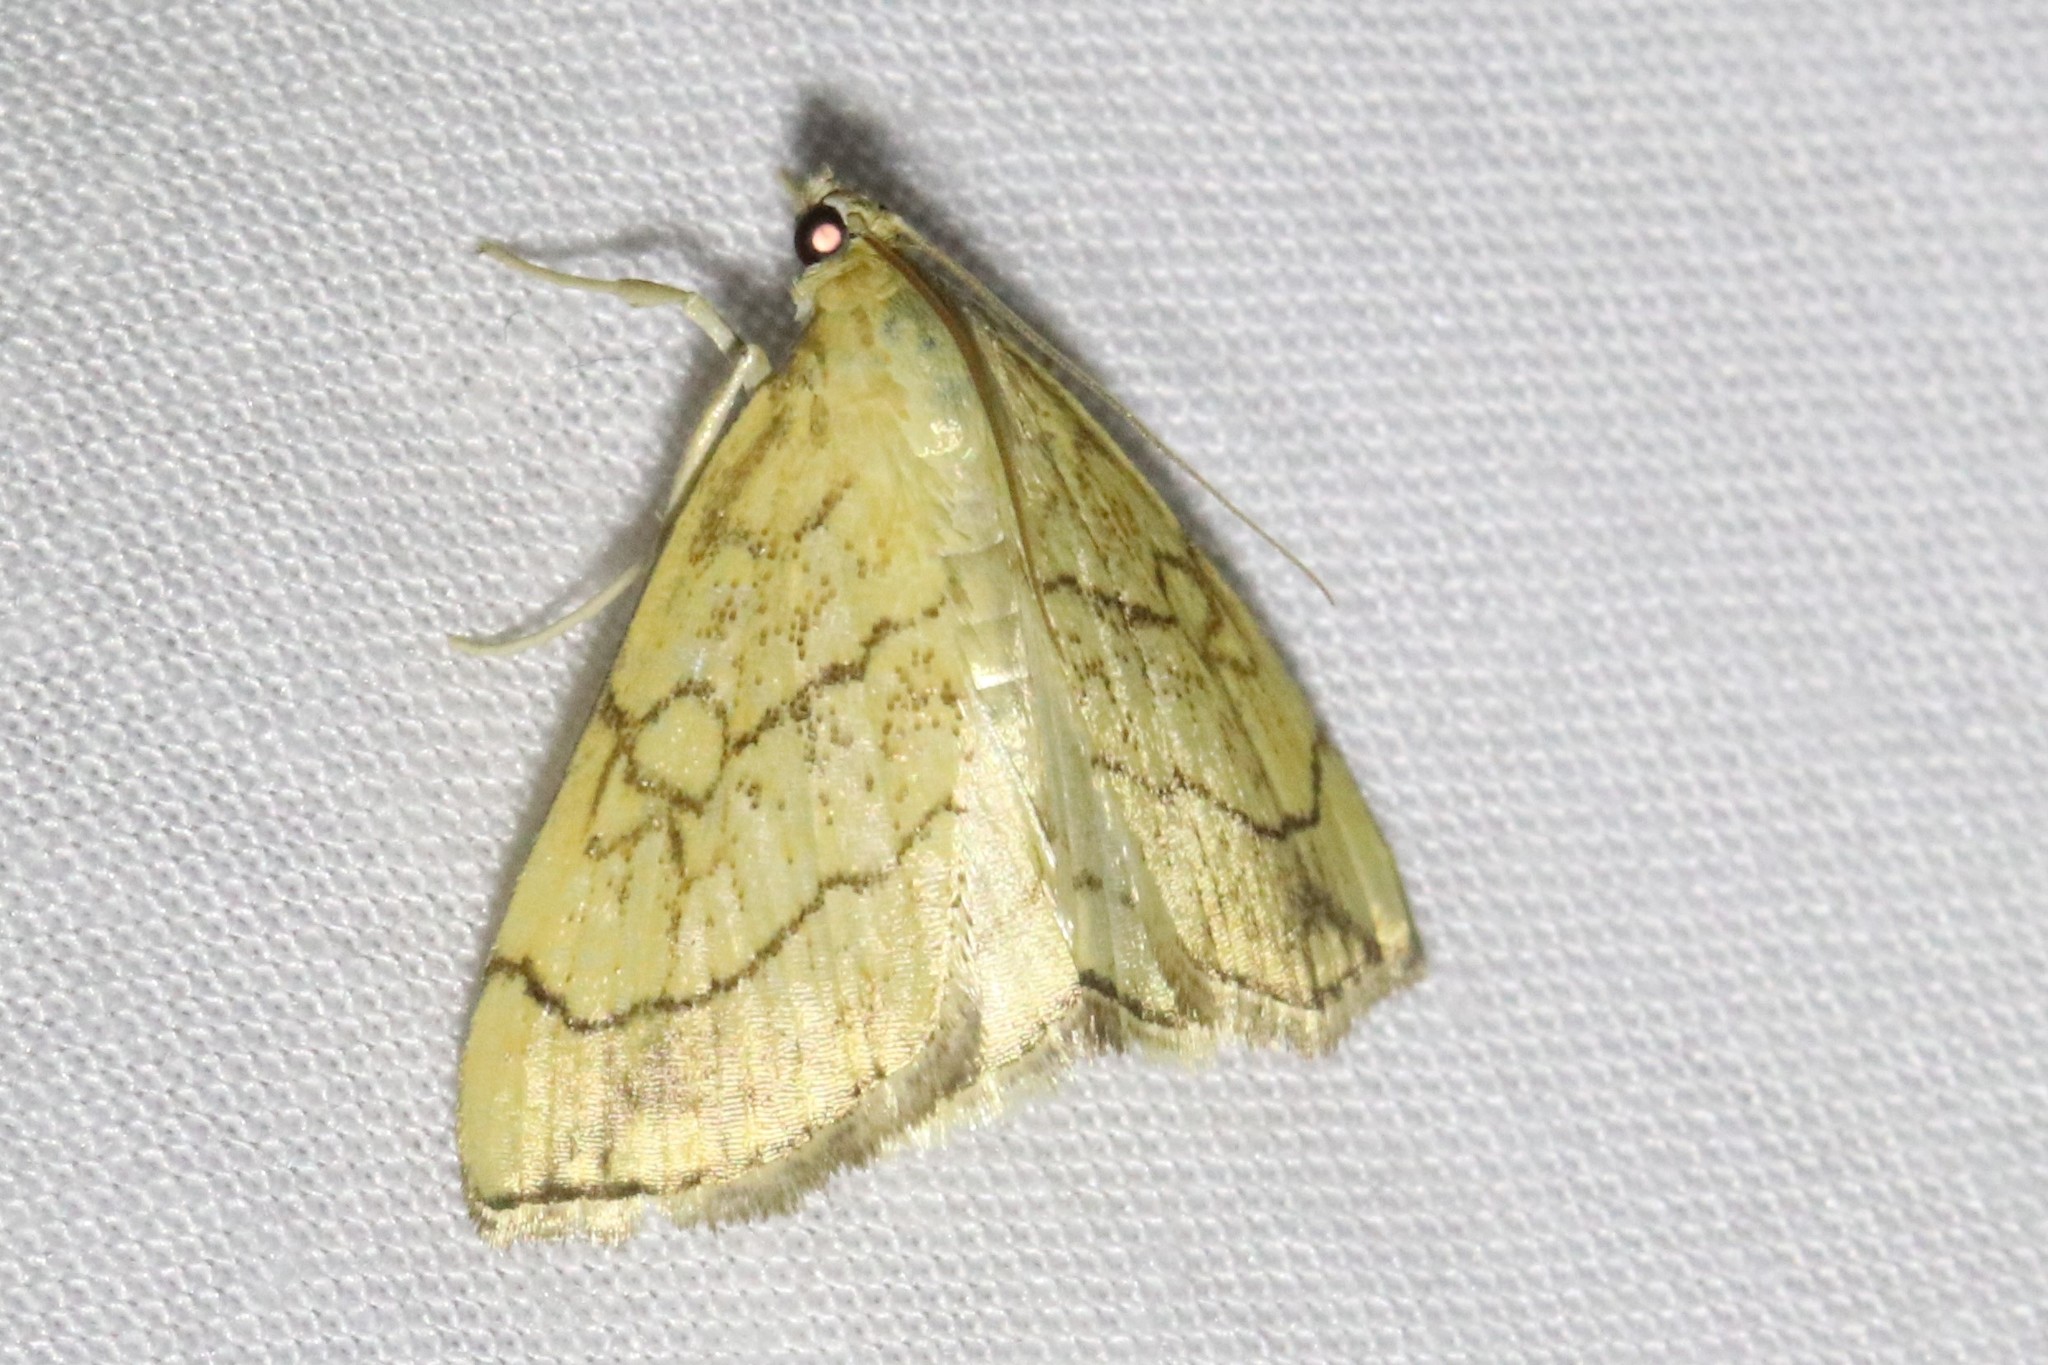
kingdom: Animalia
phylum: Arthropoda
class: Insecta
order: Lepidoptera
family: Crambidae
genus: Evergestis
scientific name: Evergestis pallidata
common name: Chequered pearl
